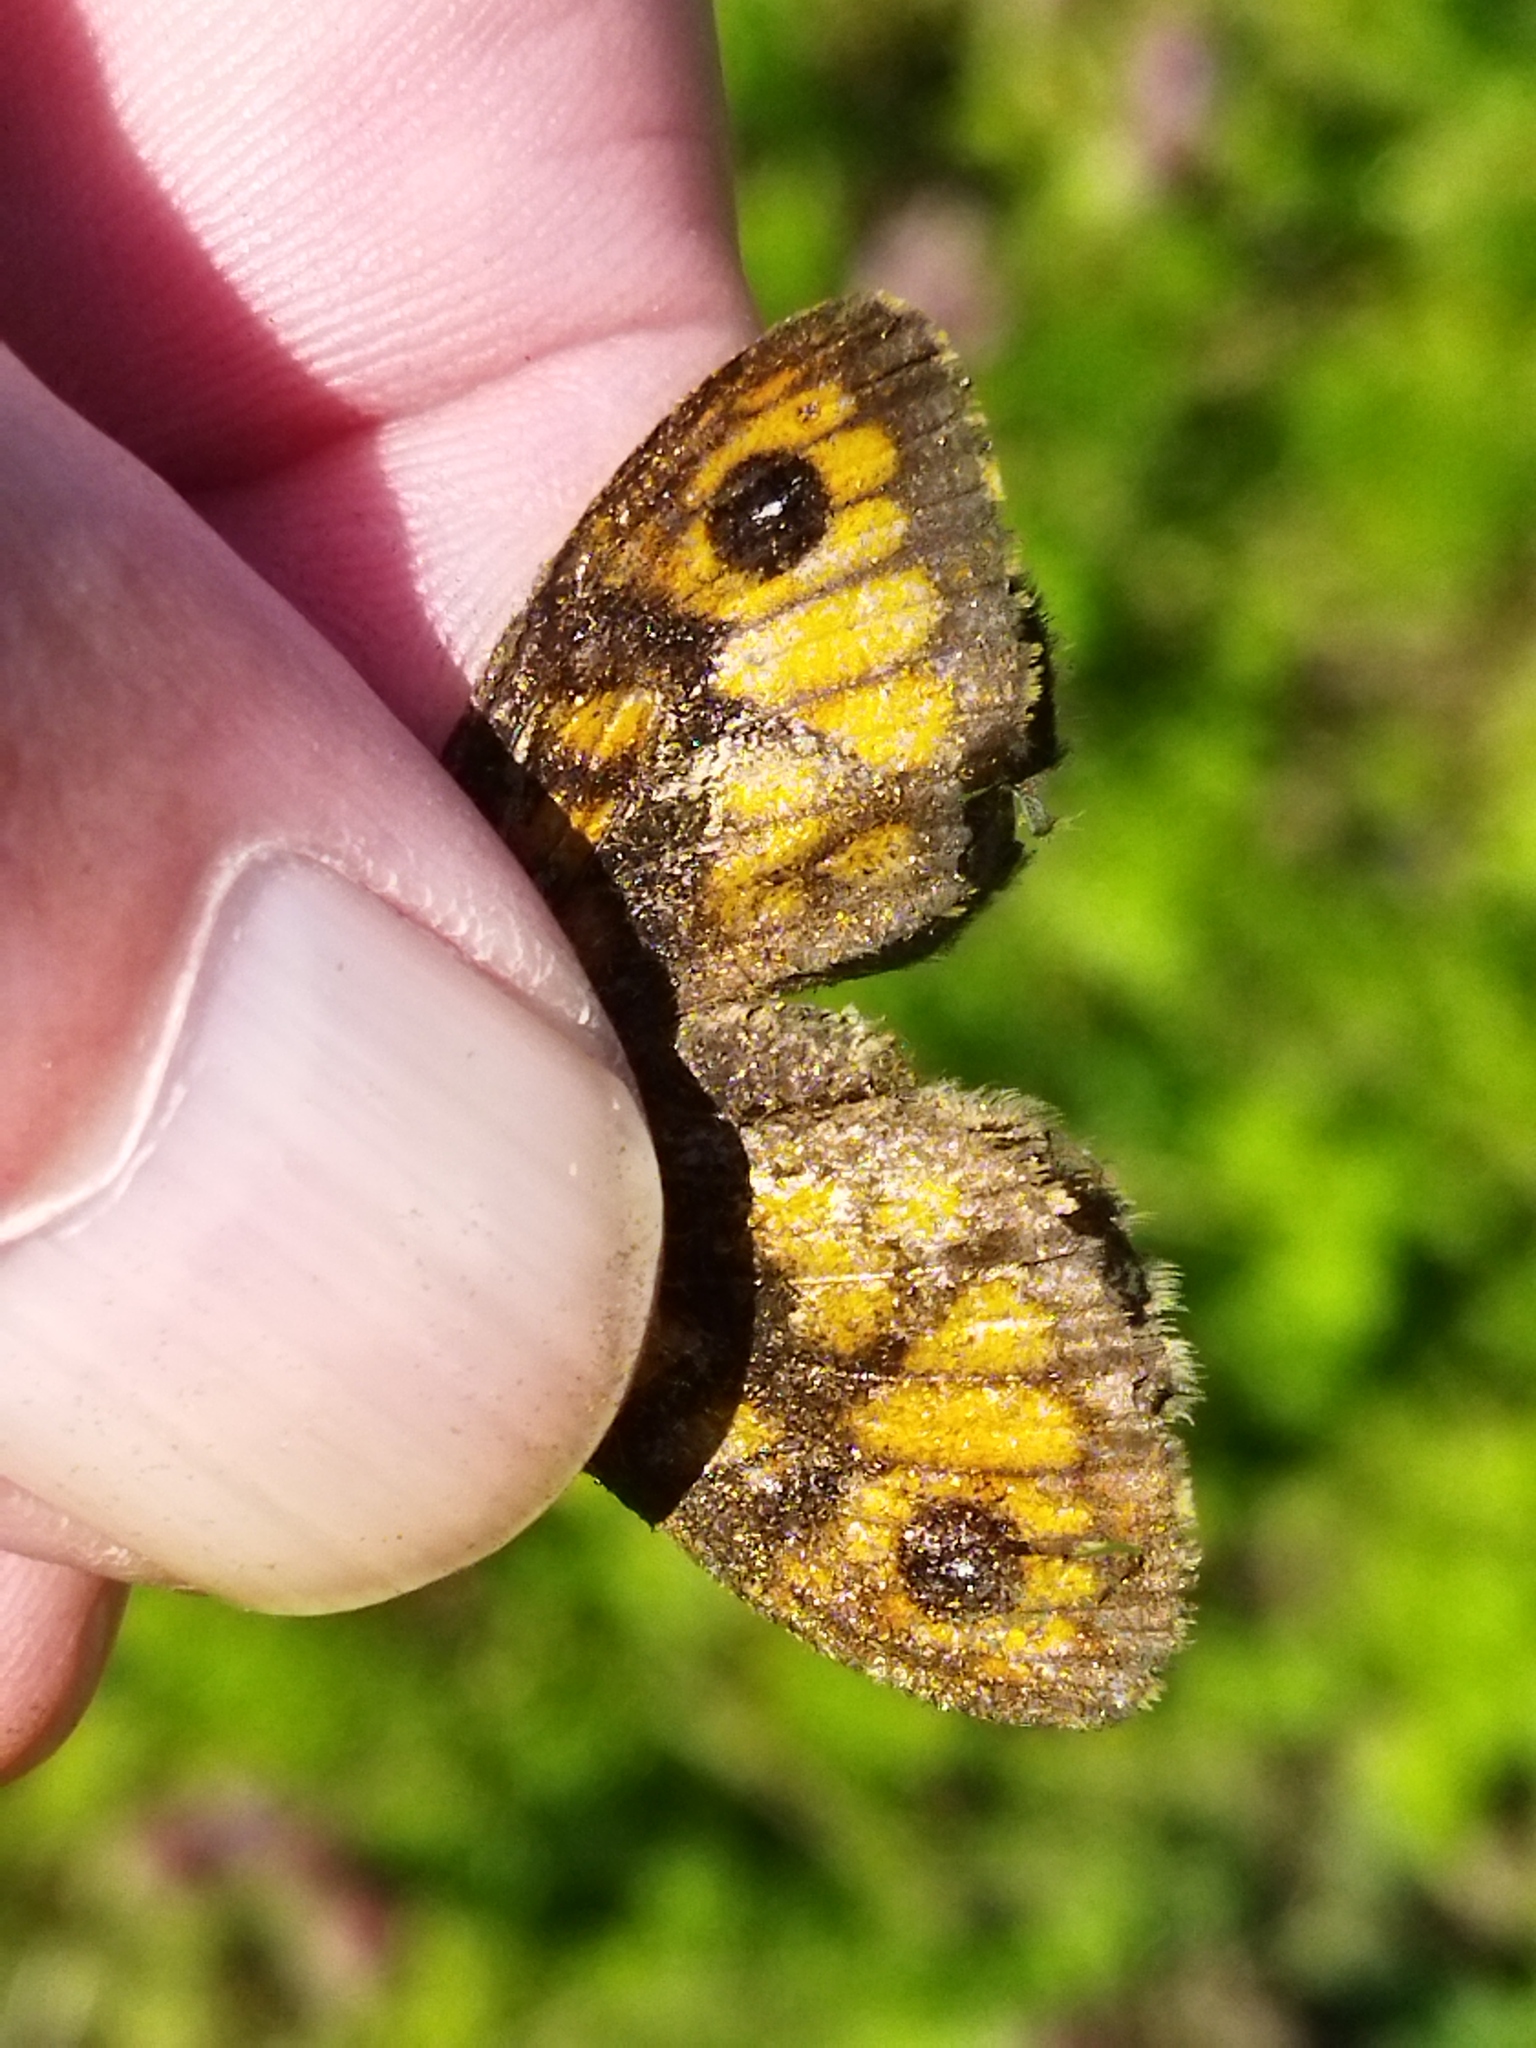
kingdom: Animalia
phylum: Arthropoda
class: Insecta
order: Lepidoptera
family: Nymphalidae
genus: Pararge
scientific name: Pararge Lasiommata megera
